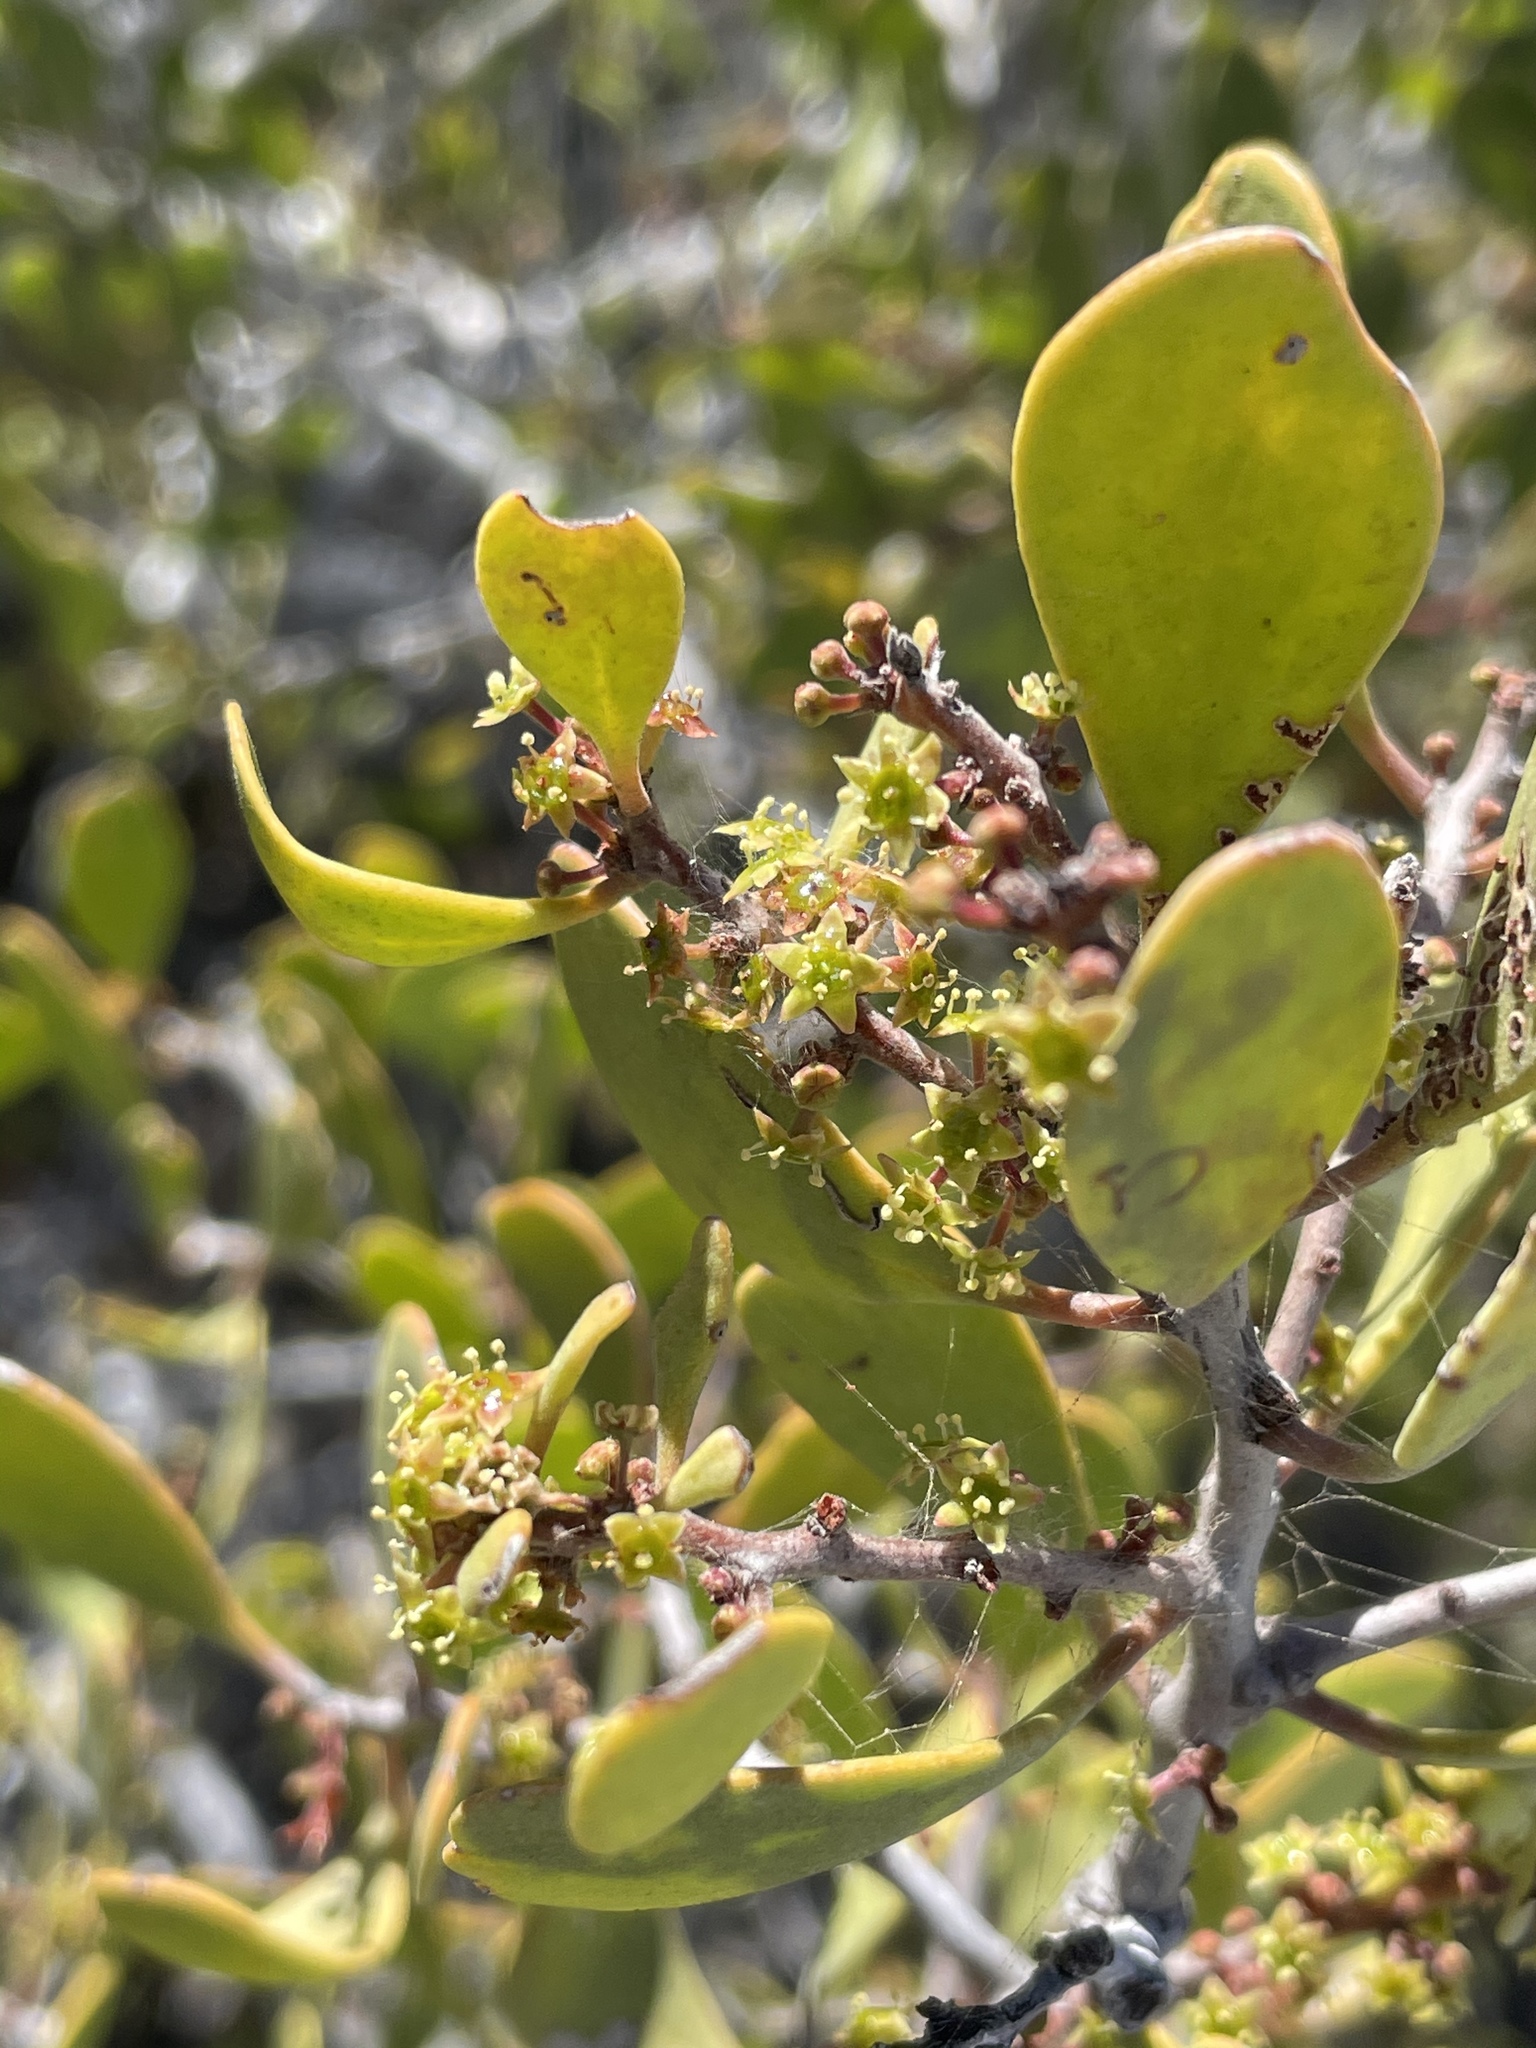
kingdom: Plantae
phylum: Tracheophyta
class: Magnoliopsida
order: Celastrales
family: Celastraceae
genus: Tricerma
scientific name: Tricerma phyllanthoides
